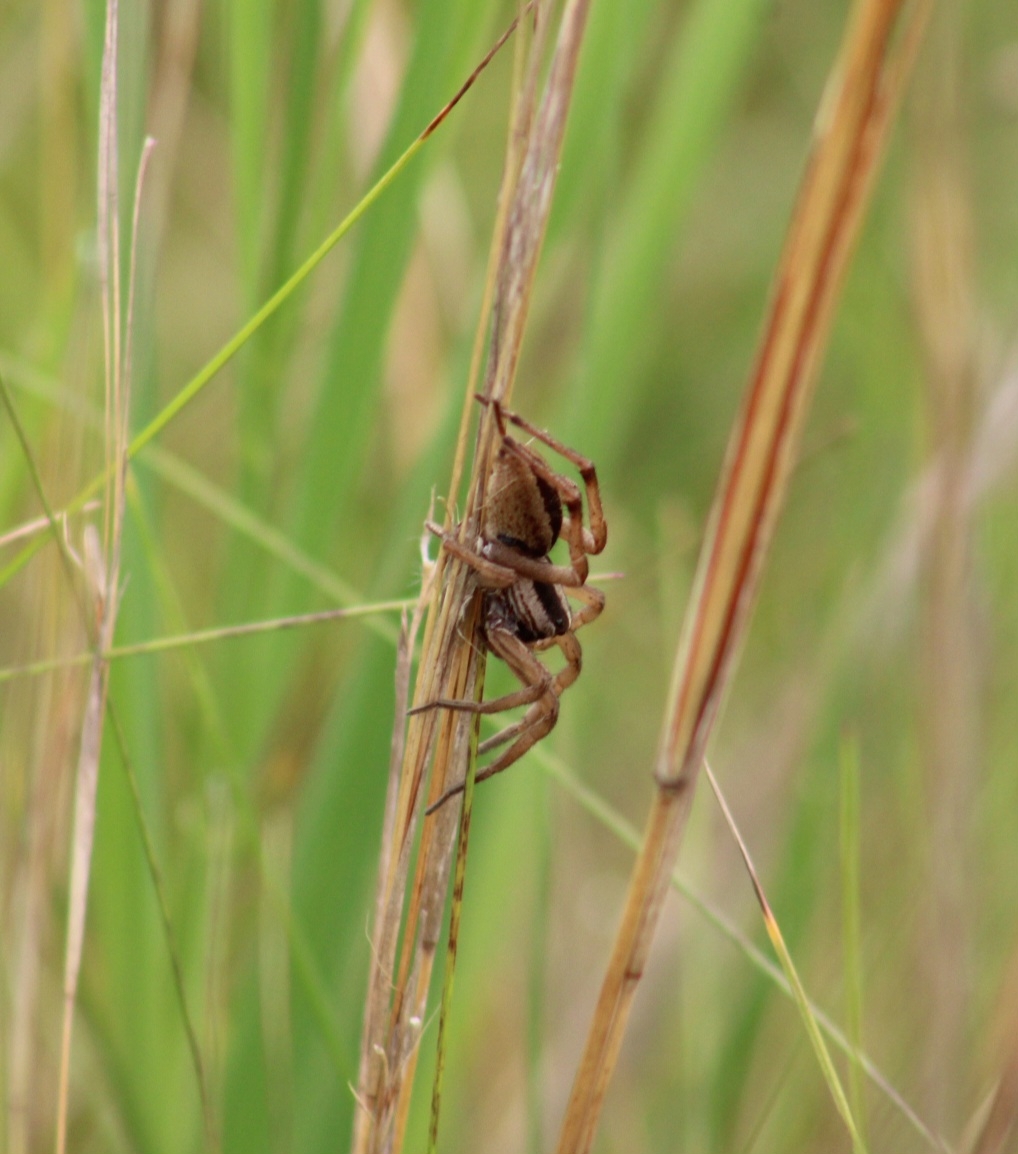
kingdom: Animalia
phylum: Arthropoda
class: Arachnida
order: Araneae
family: Lycosidae
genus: Rabidosa
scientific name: Rabidosa punctulata
